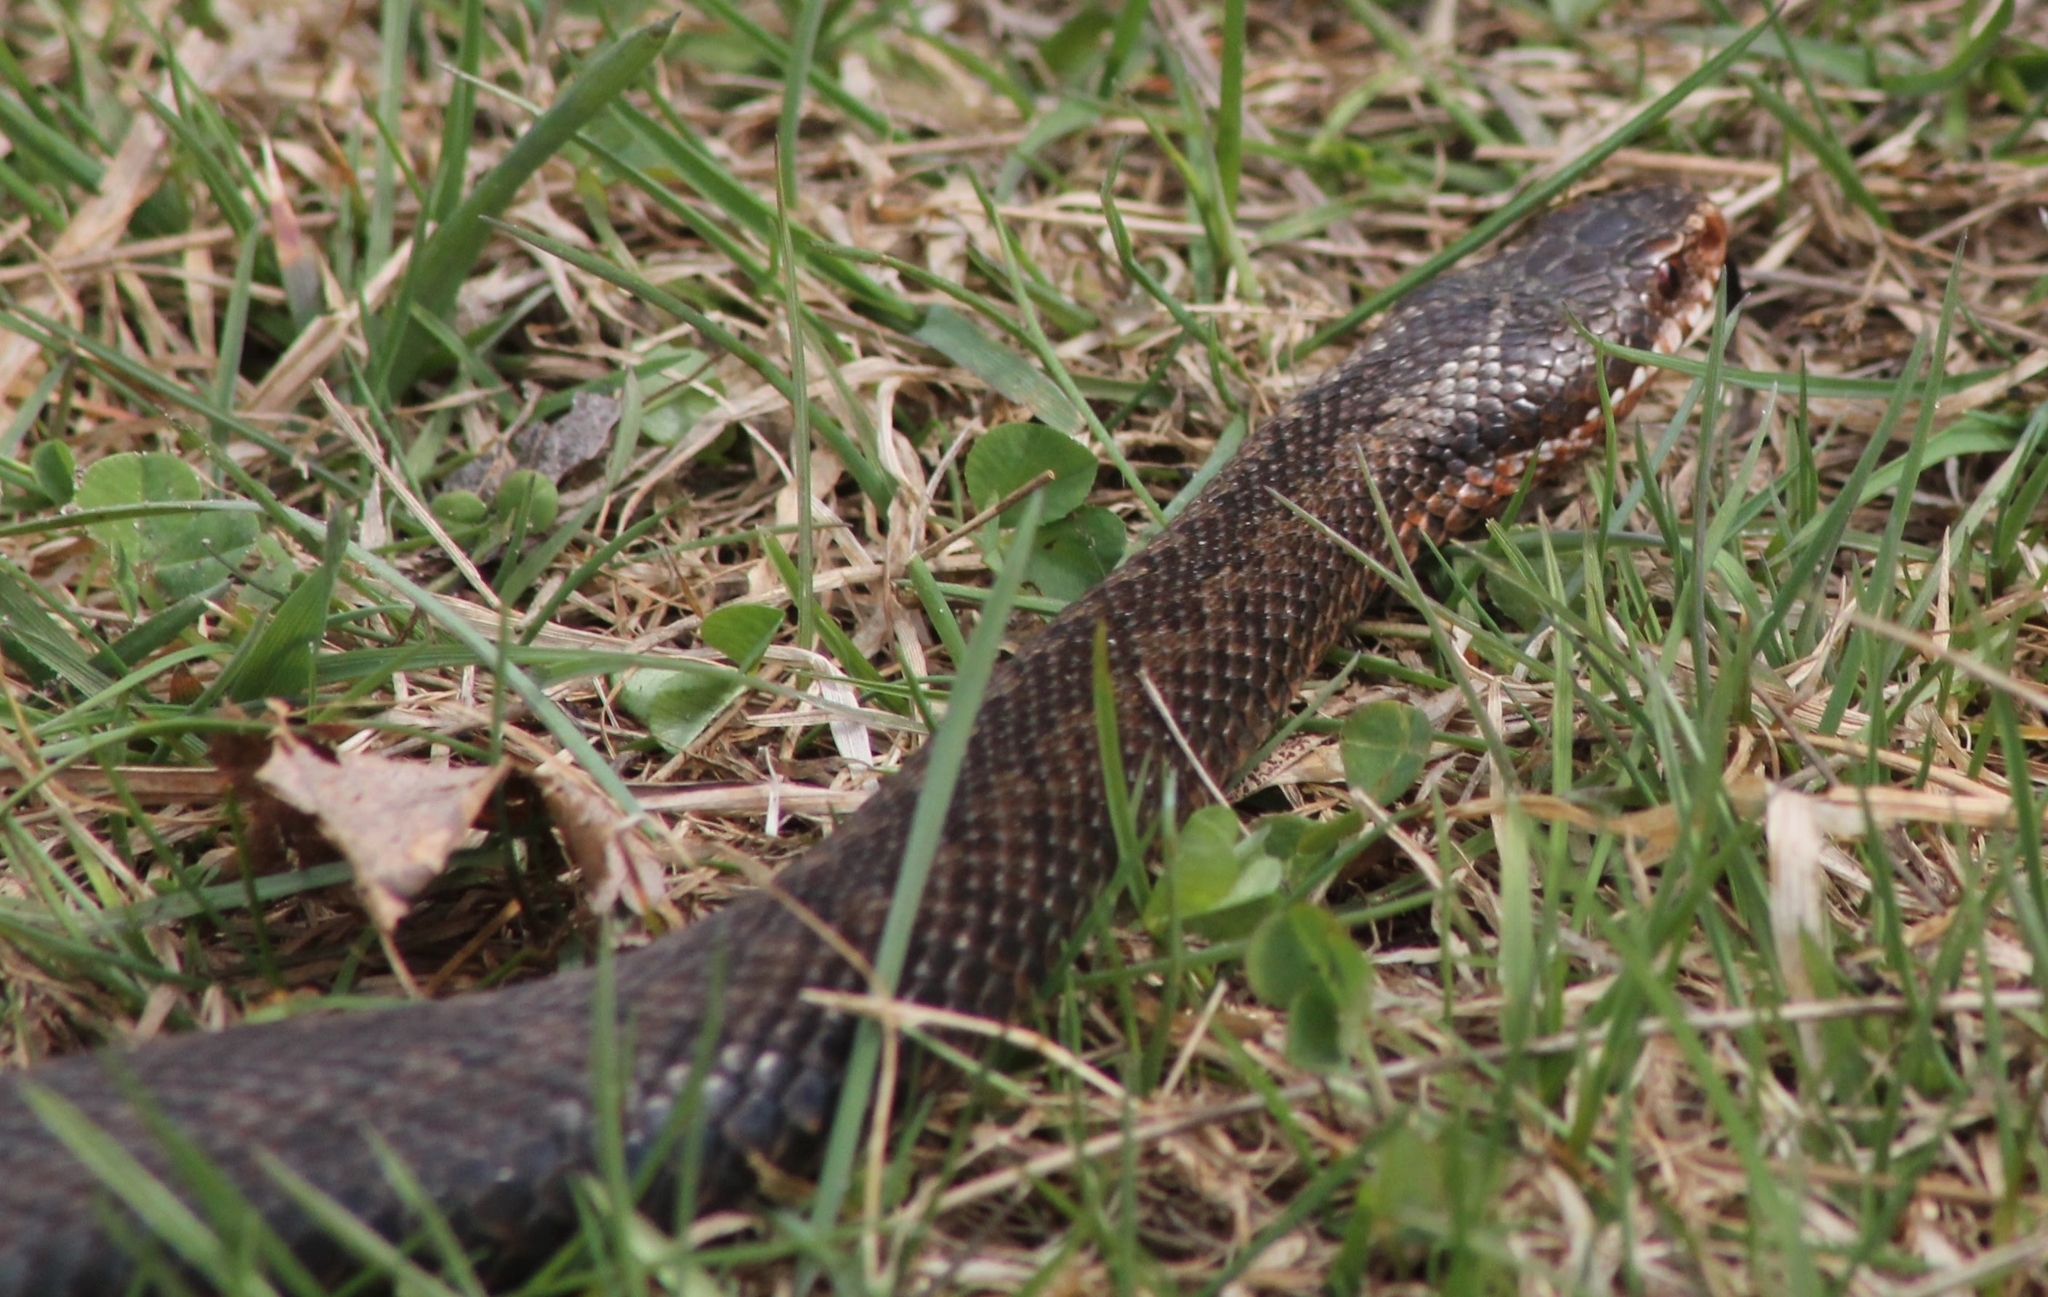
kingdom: Animalia
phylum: Chordata
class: Squamata
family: Viperidae
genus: Vipera
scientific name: Vipera berus
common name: Adder
